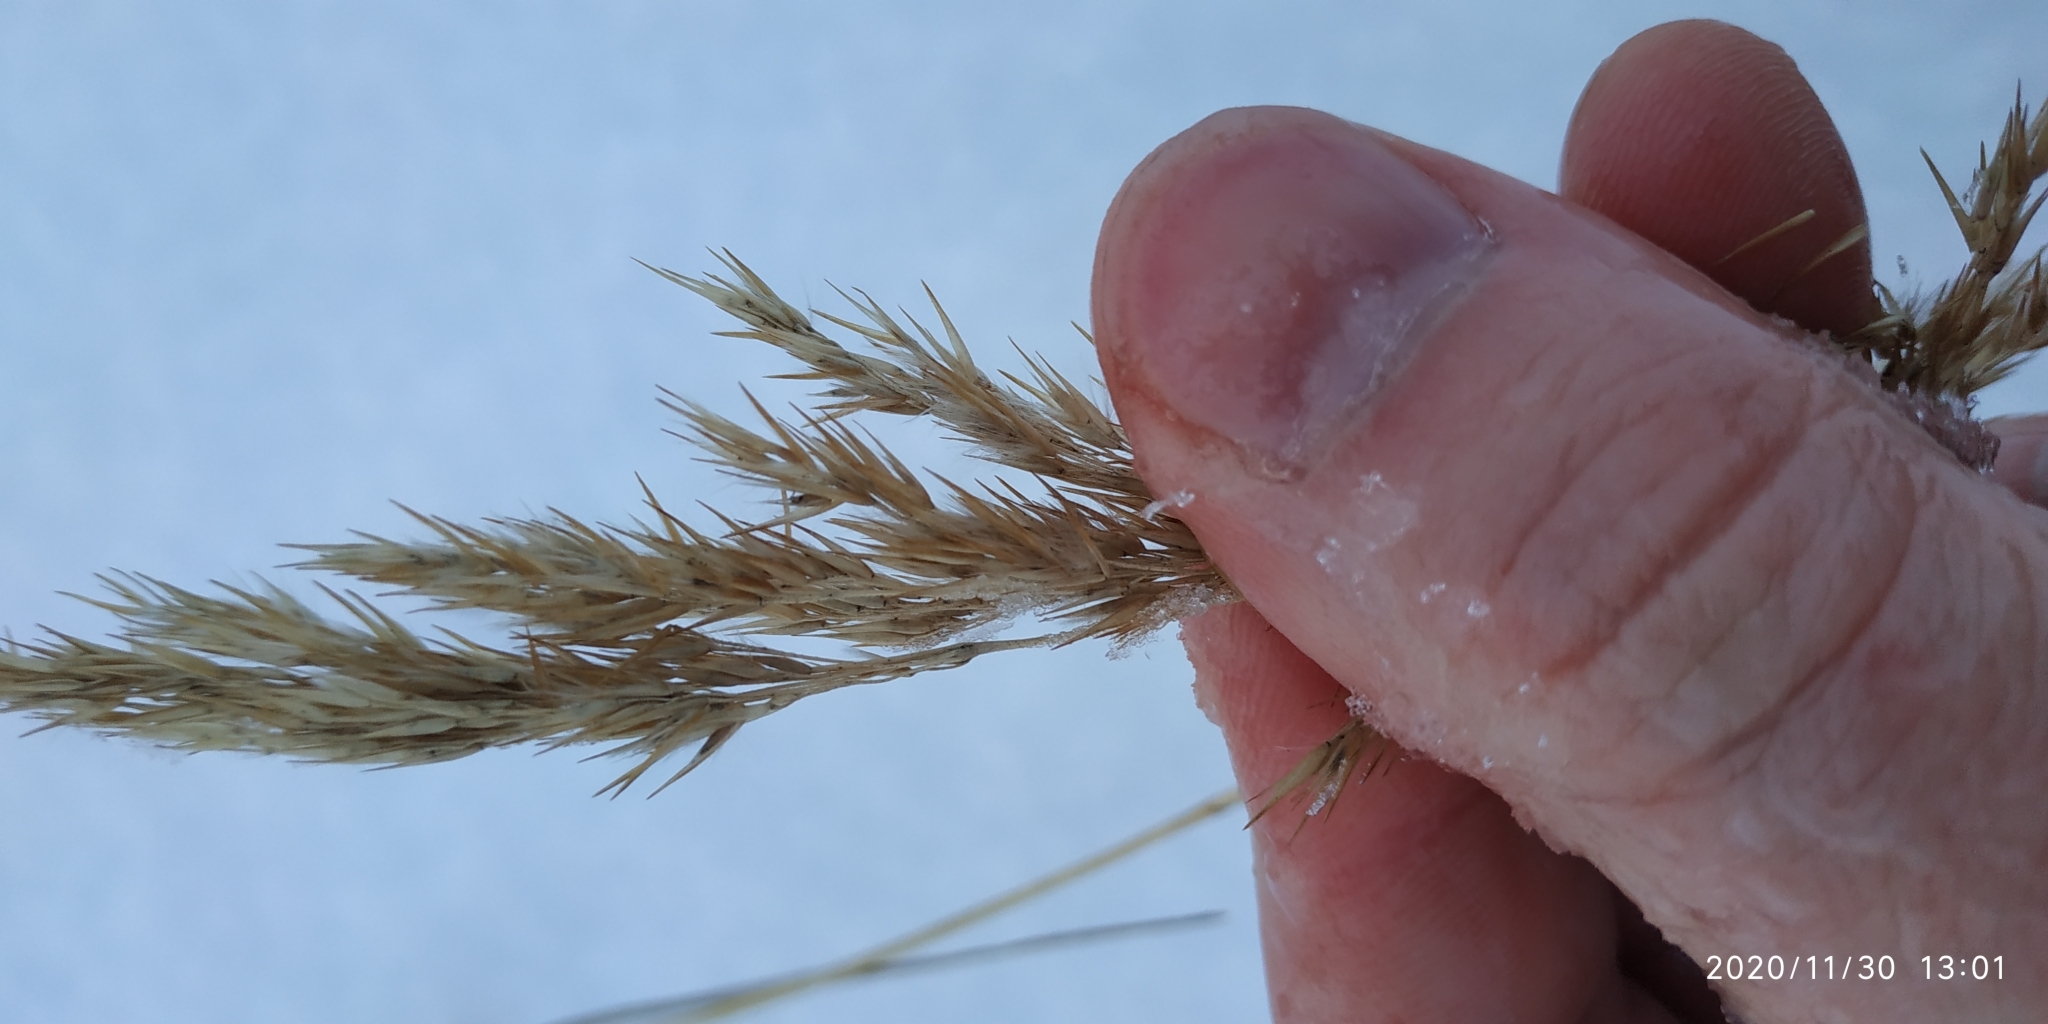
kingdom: Plantae
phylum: Tracheophyta
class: Liliopsida
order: Poales
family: Poaceae
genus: Calamagrostis
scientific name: Calamagrostis purpurea
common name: Scandinavian small-reed
